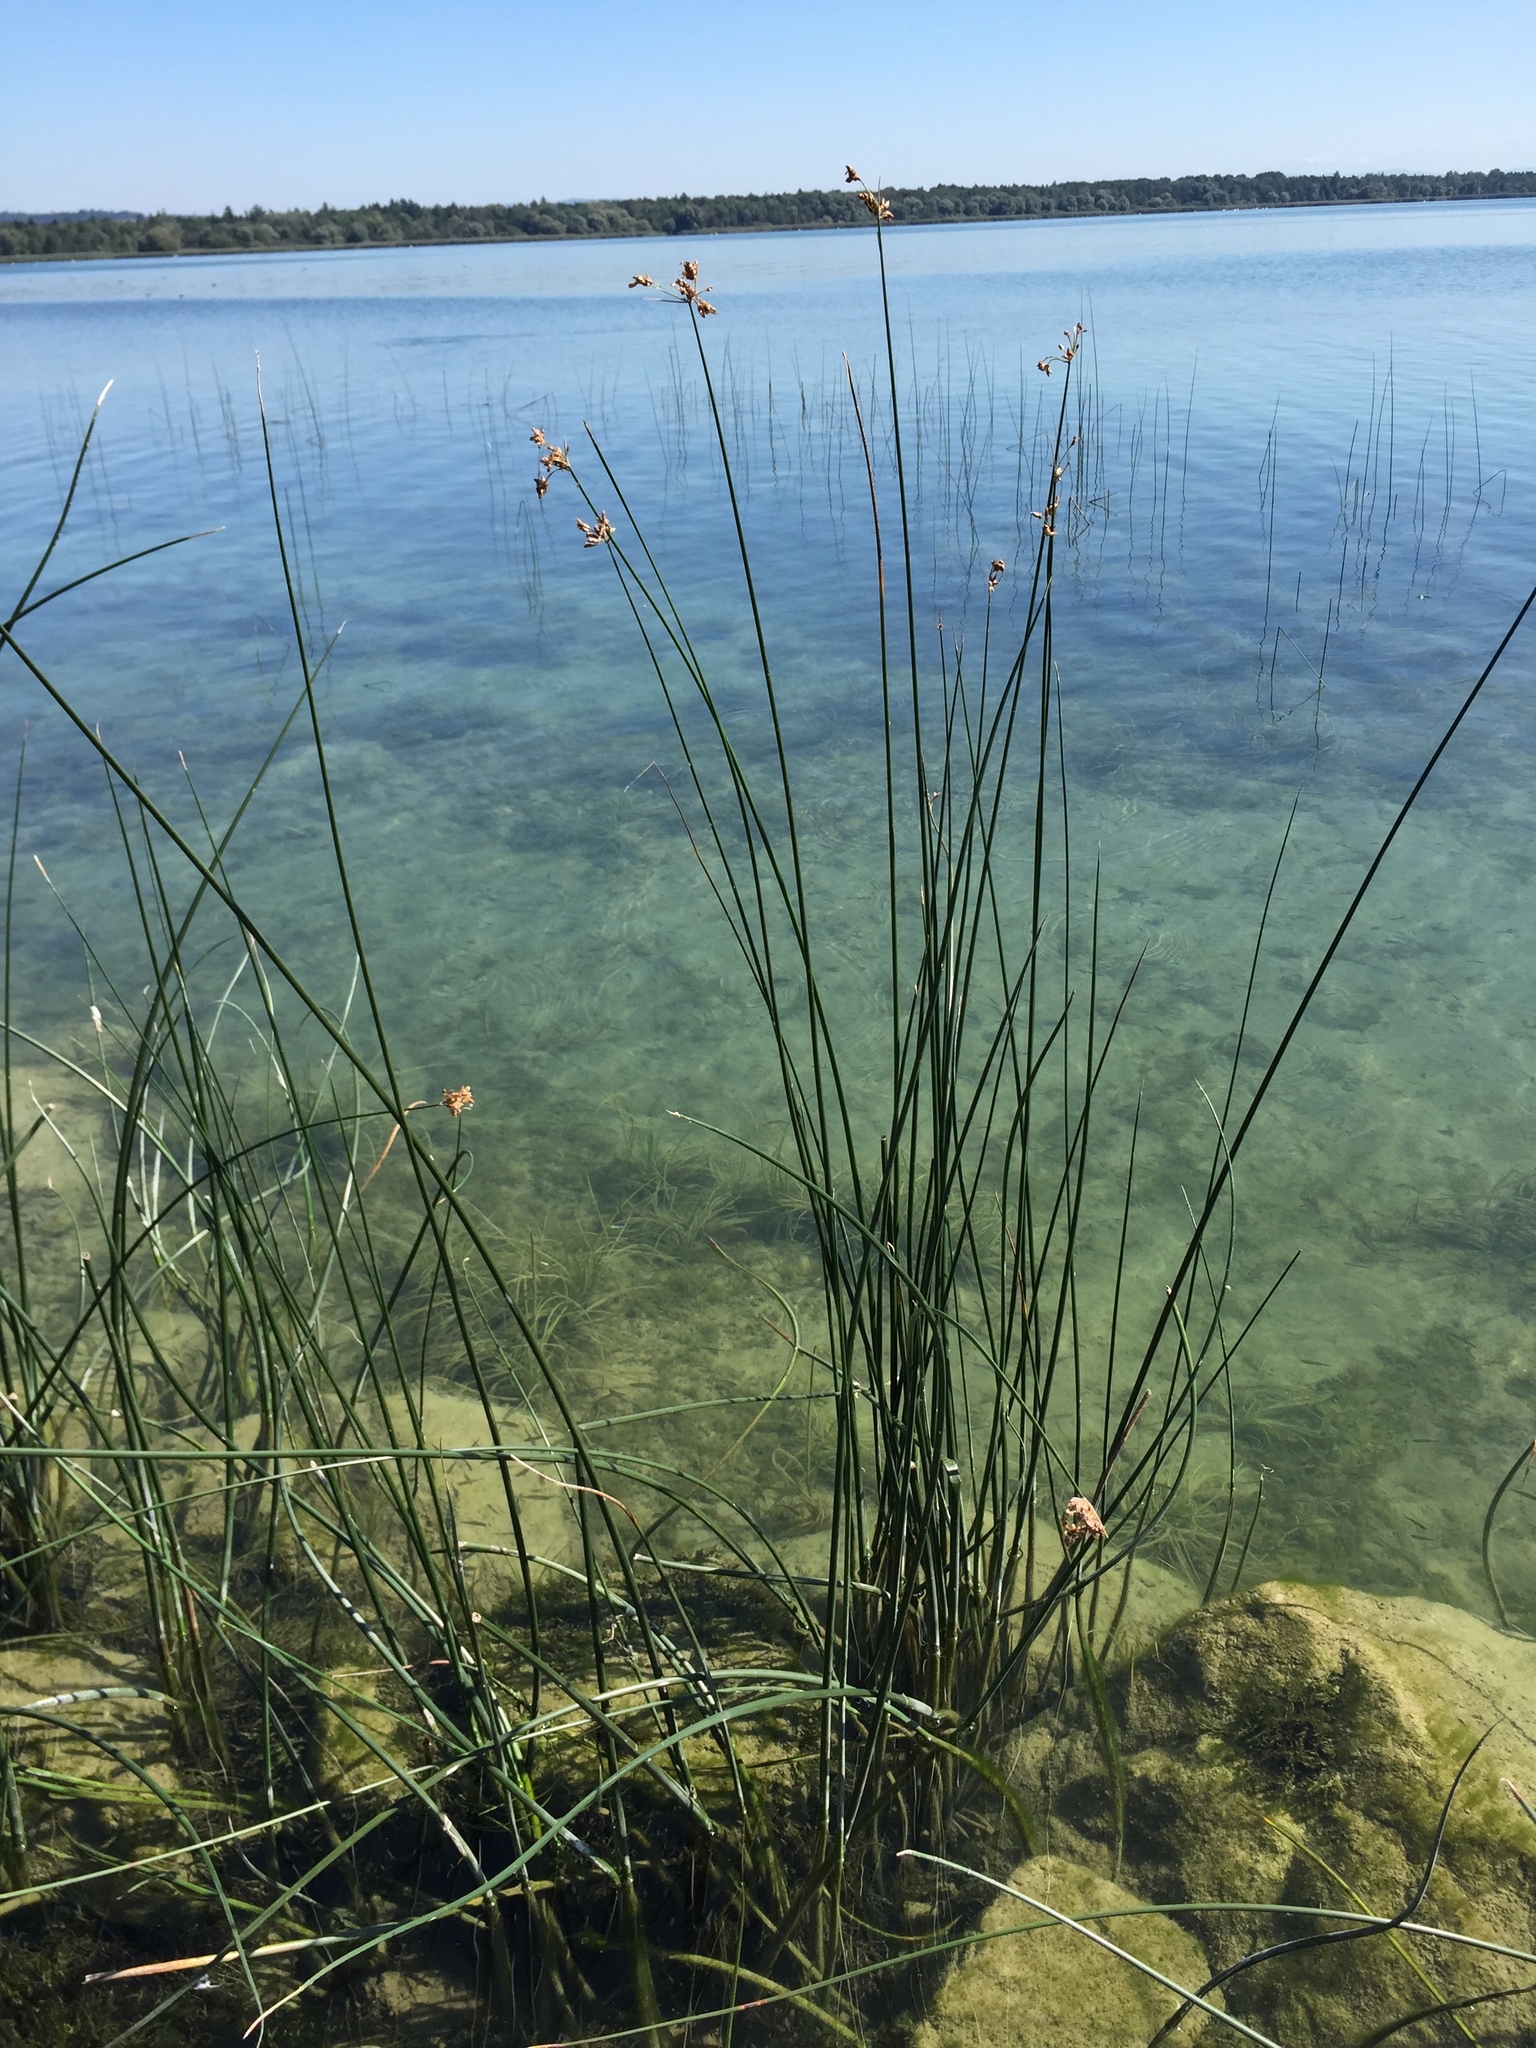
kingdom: Plantae
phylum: Tracheophyta
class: Liliopsida
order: Poales
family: Cyperaceae
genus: Schoenoplectus
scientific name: Schoenoplectus lacustris
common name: Common club-rush
